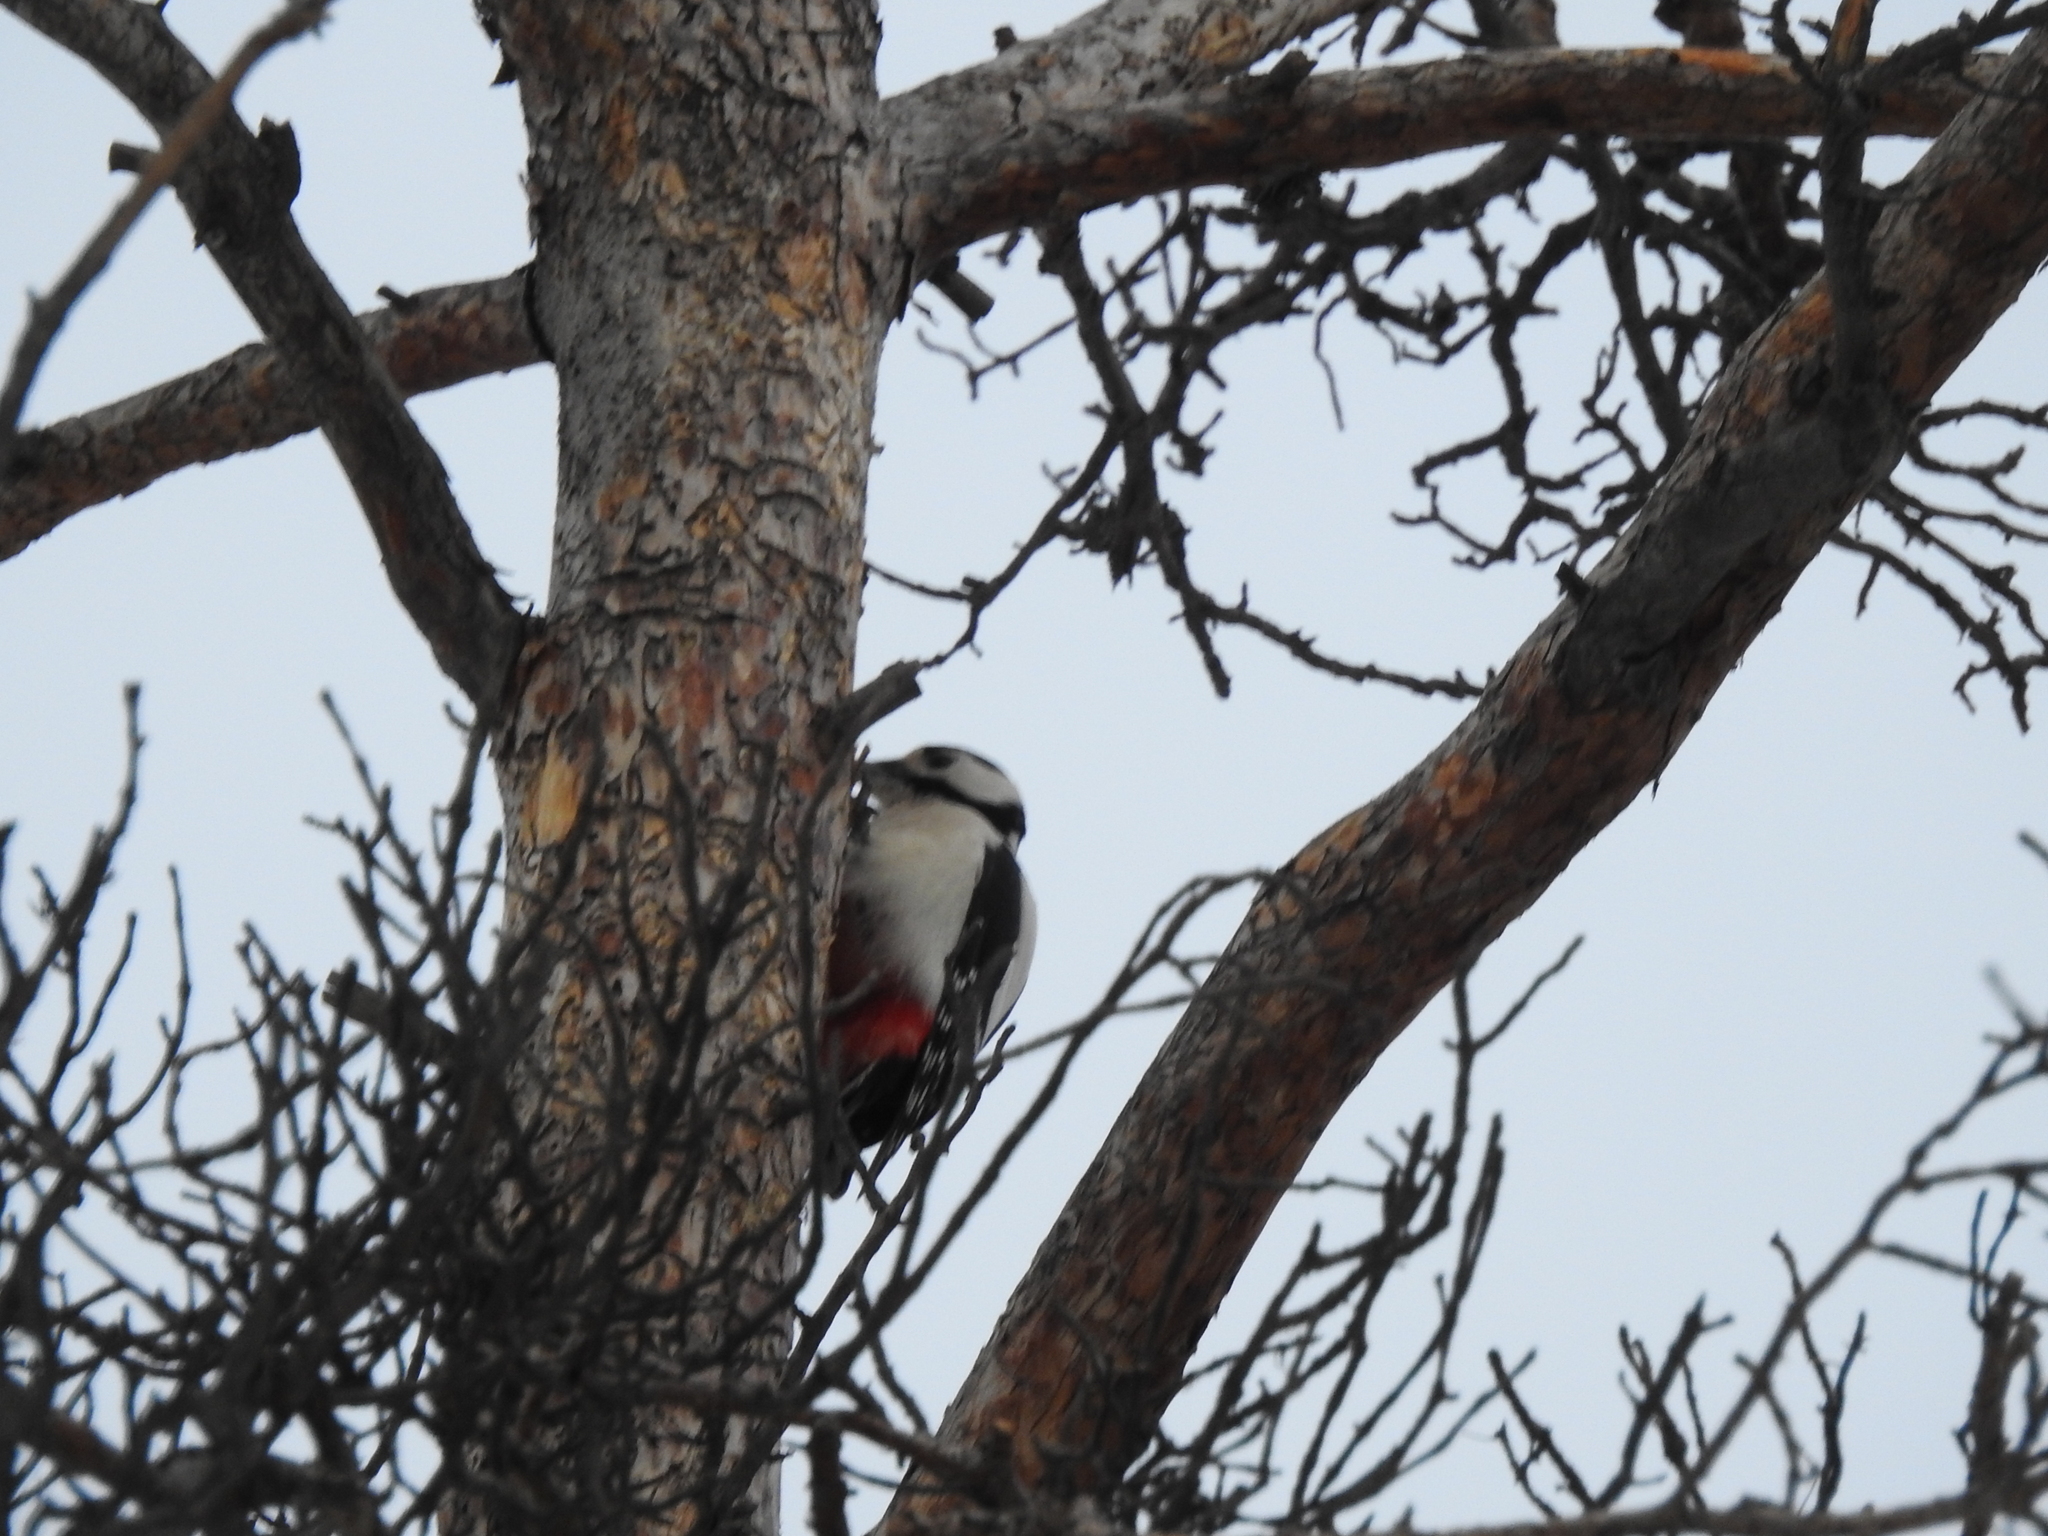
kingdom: Animalia
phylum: Chordata
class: Aves
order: Piciformes
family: Picidae
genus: Dendrocopos
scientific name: Dendrocopos major
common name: Great spotted woodpecker
